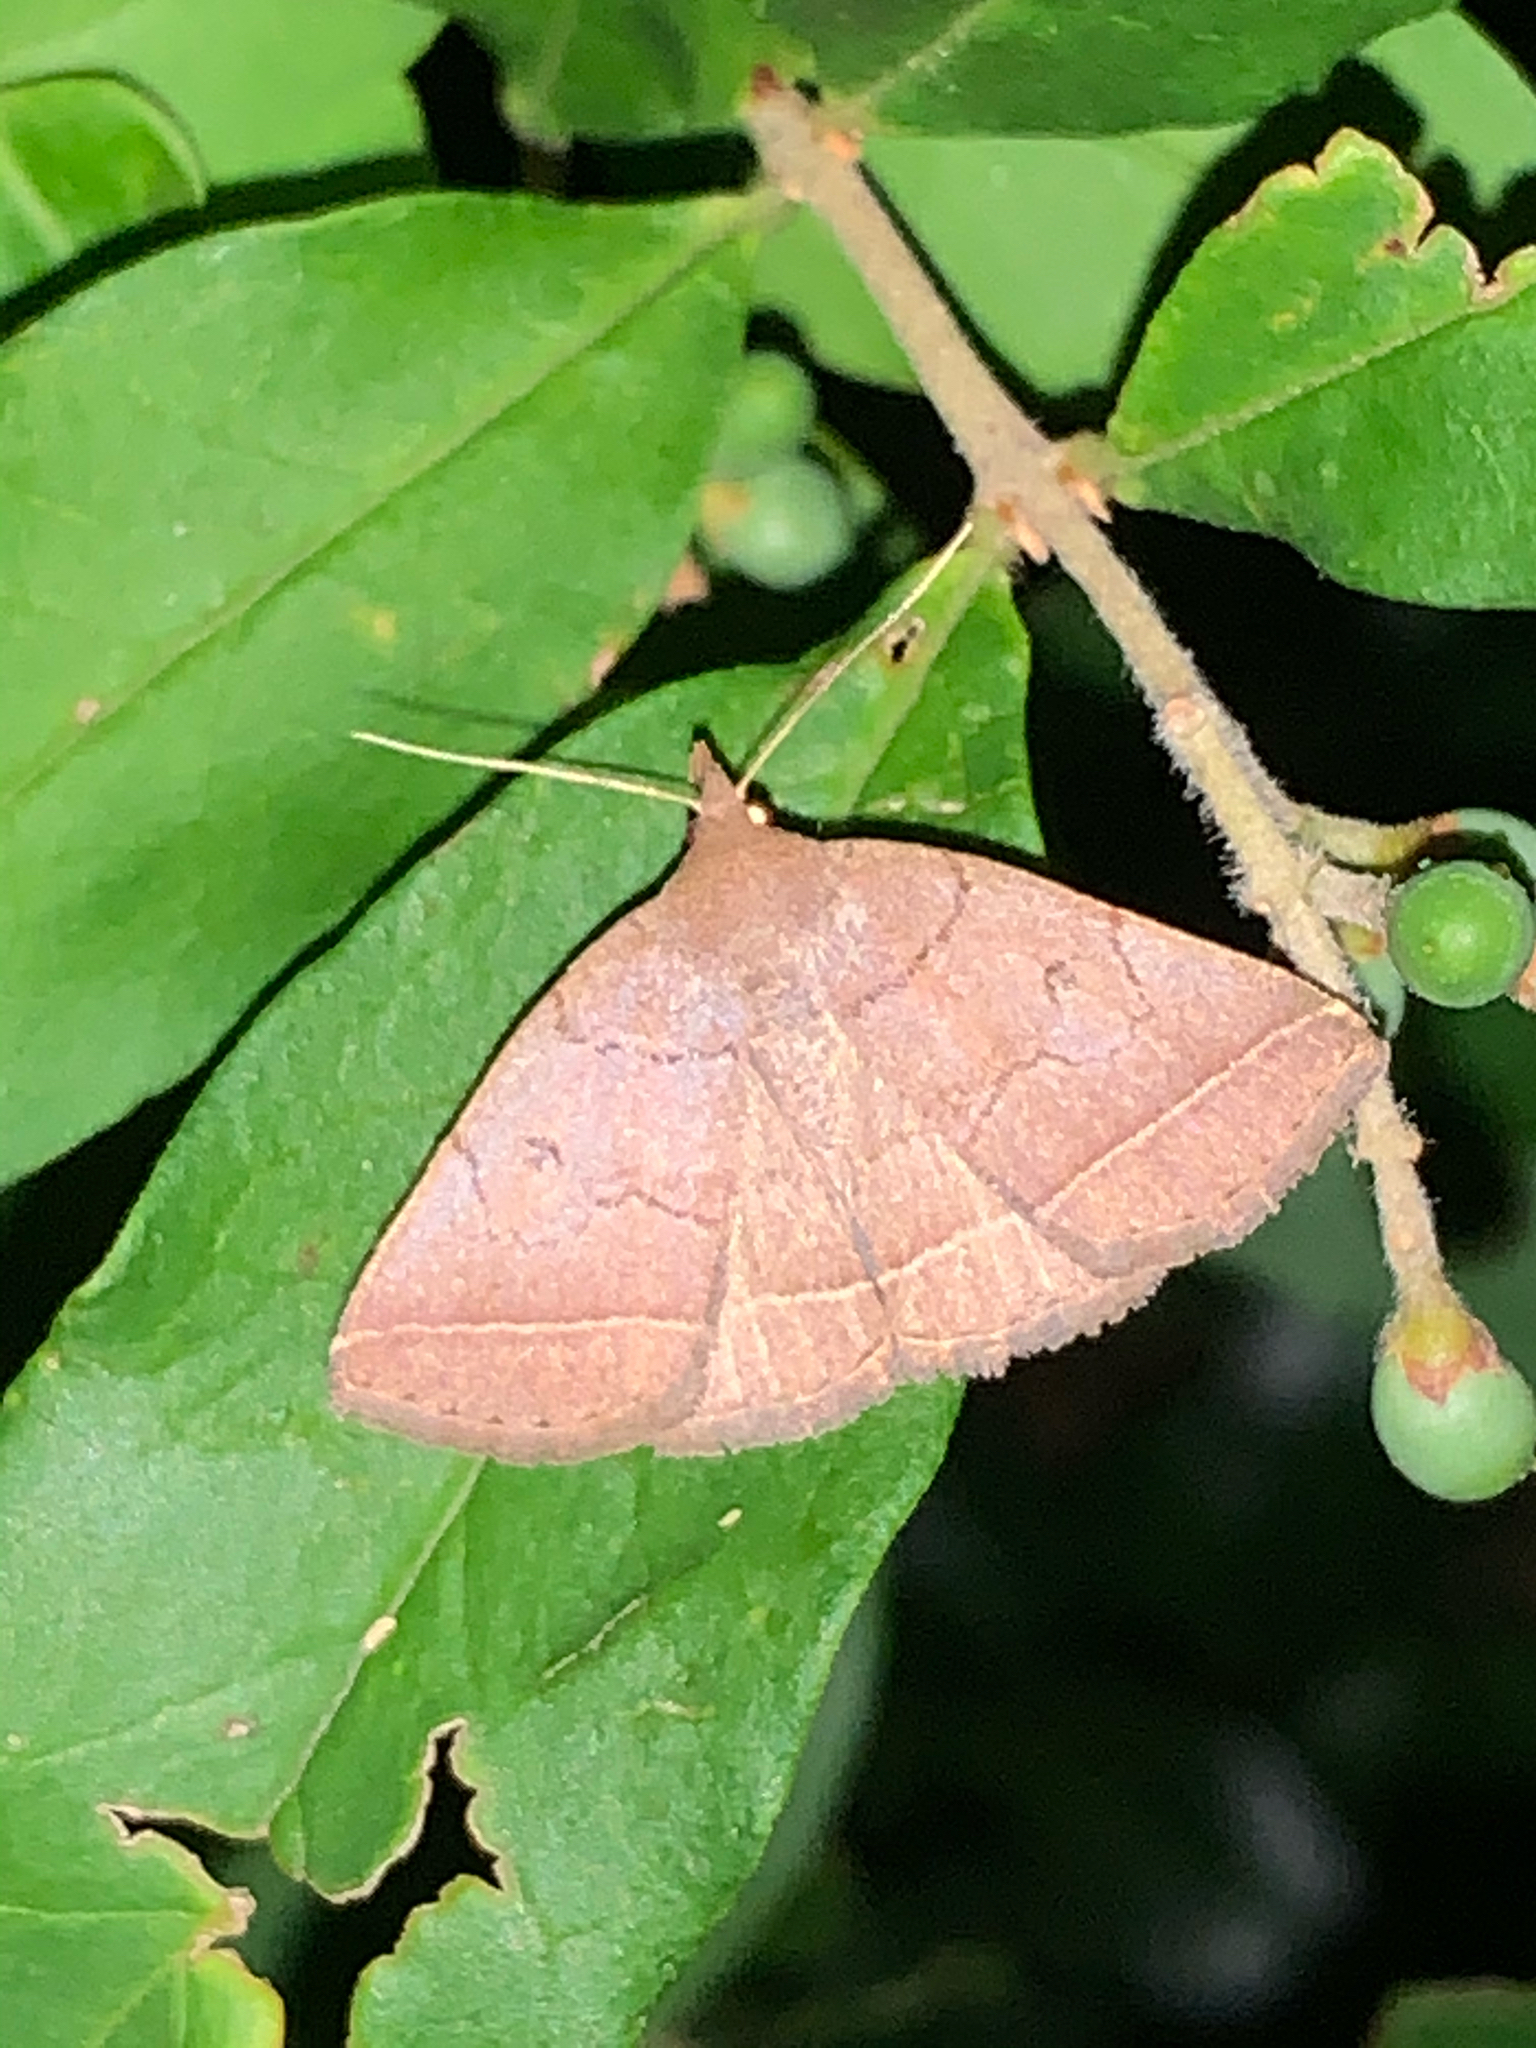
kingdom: Animalia
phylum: Arthropoda
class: Insecta
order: Lepidoptera
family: Erebidae
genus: Zanclognatha
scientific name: Zanclognatha obscuripennis
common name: Dark fan-foot
